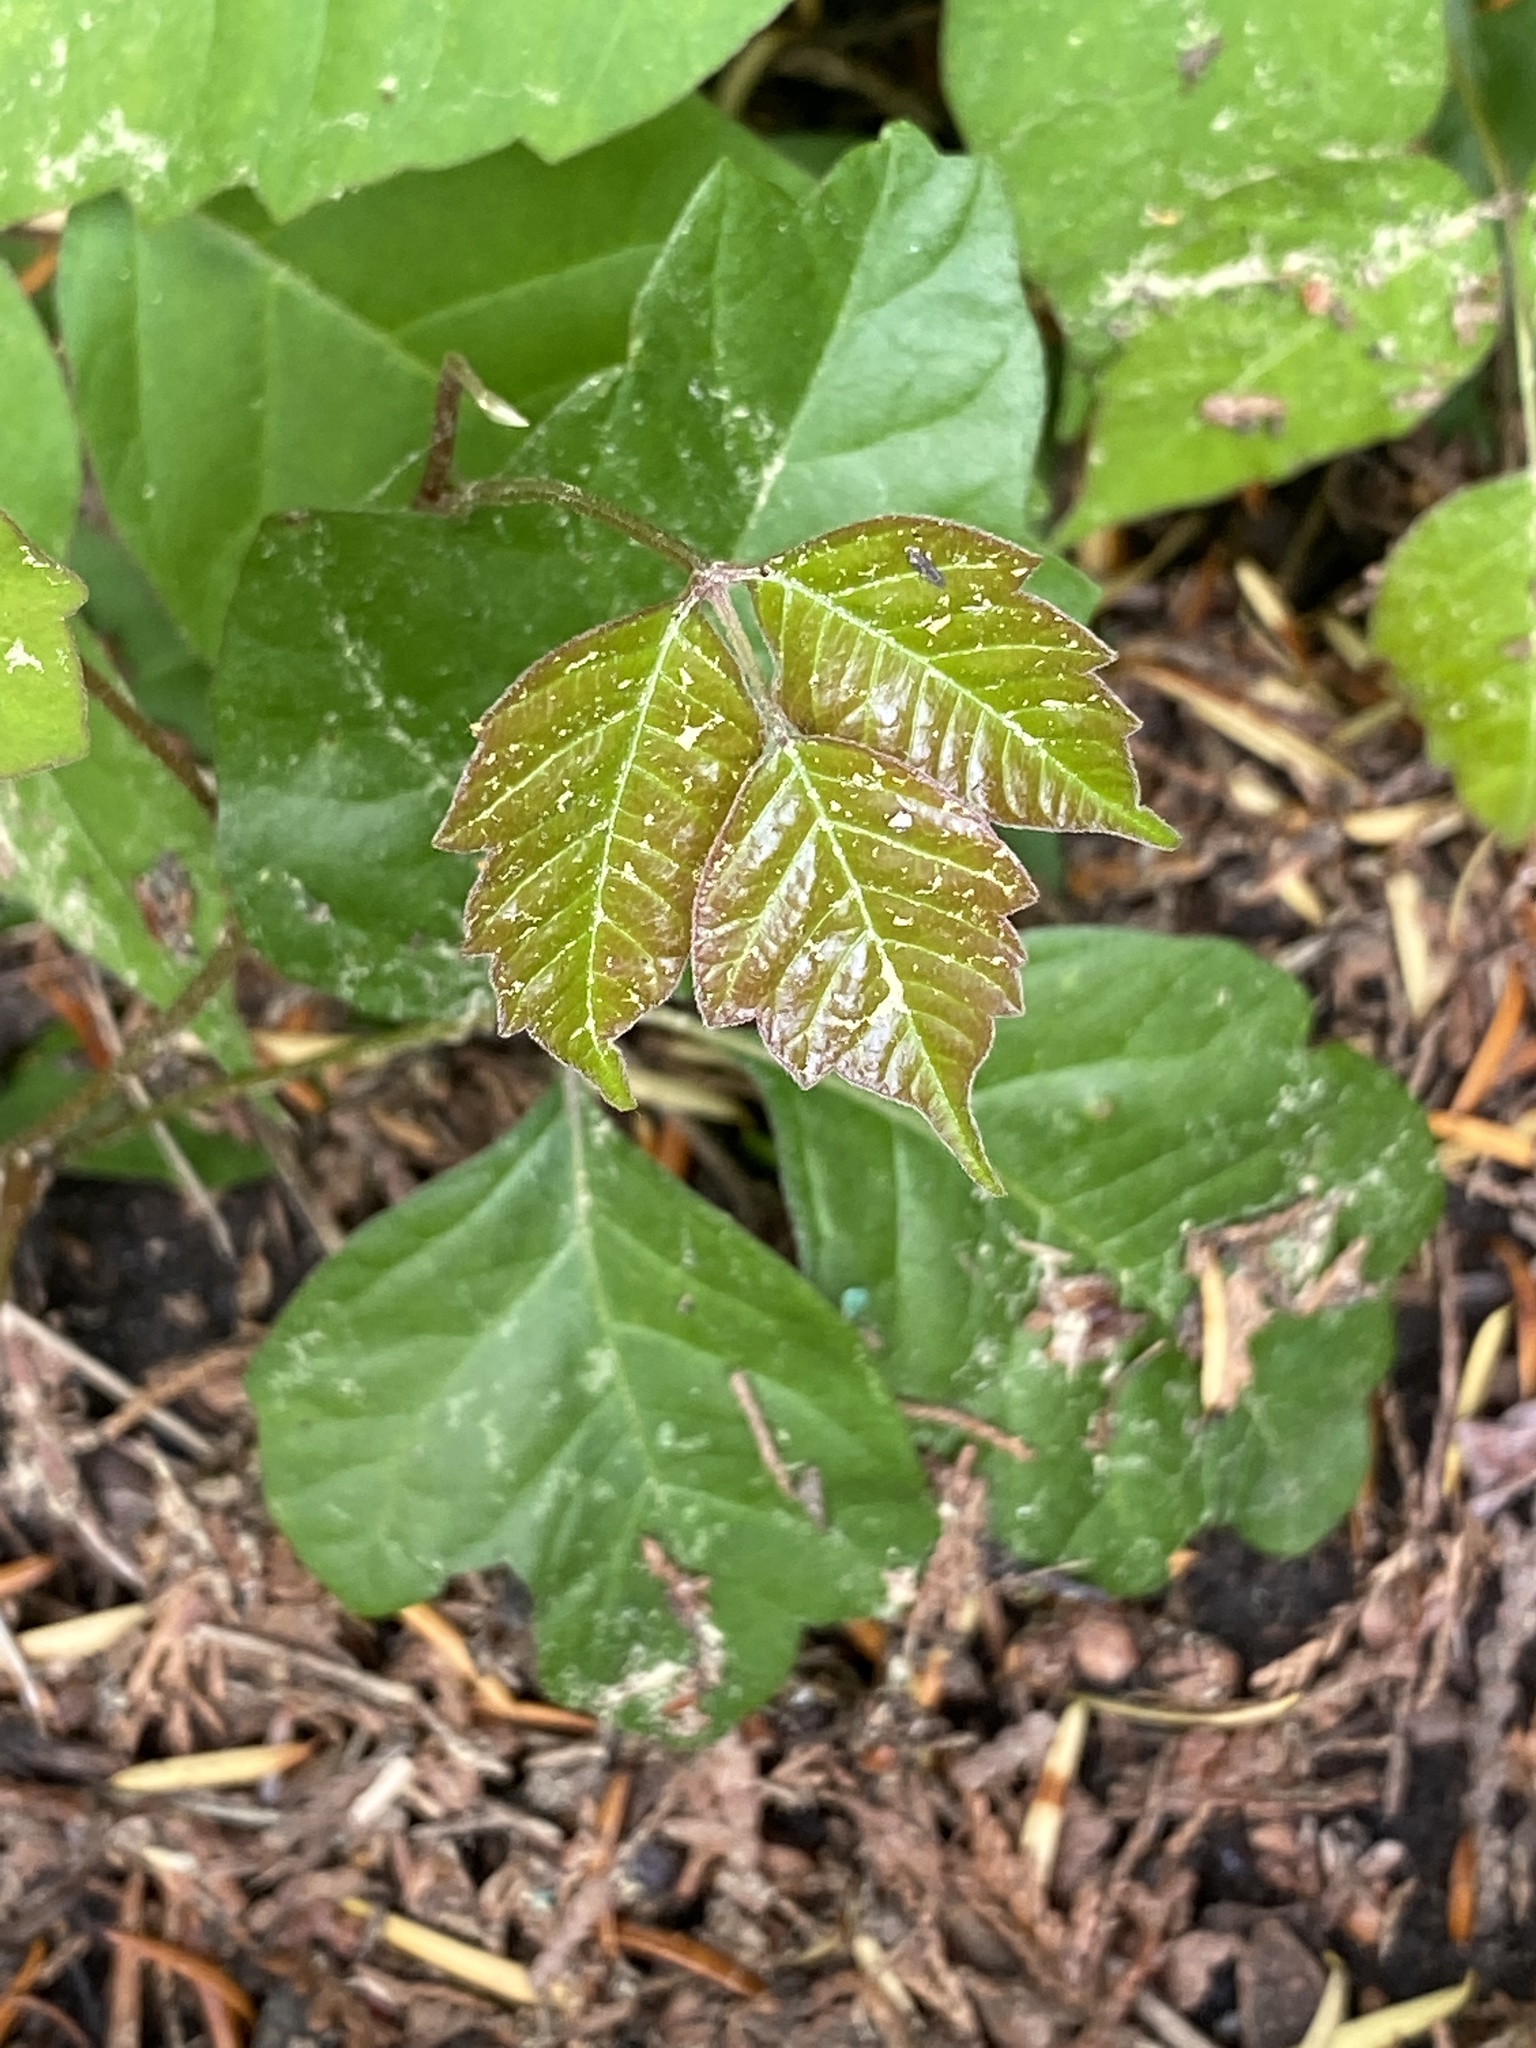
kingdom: Plantae
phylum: Tracheophyta
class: Magnoliopsida
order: Sapindales
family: Anacardiaceae
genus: Toxicodendron
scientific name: Toxicodendron radicans
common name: Poison ivy
